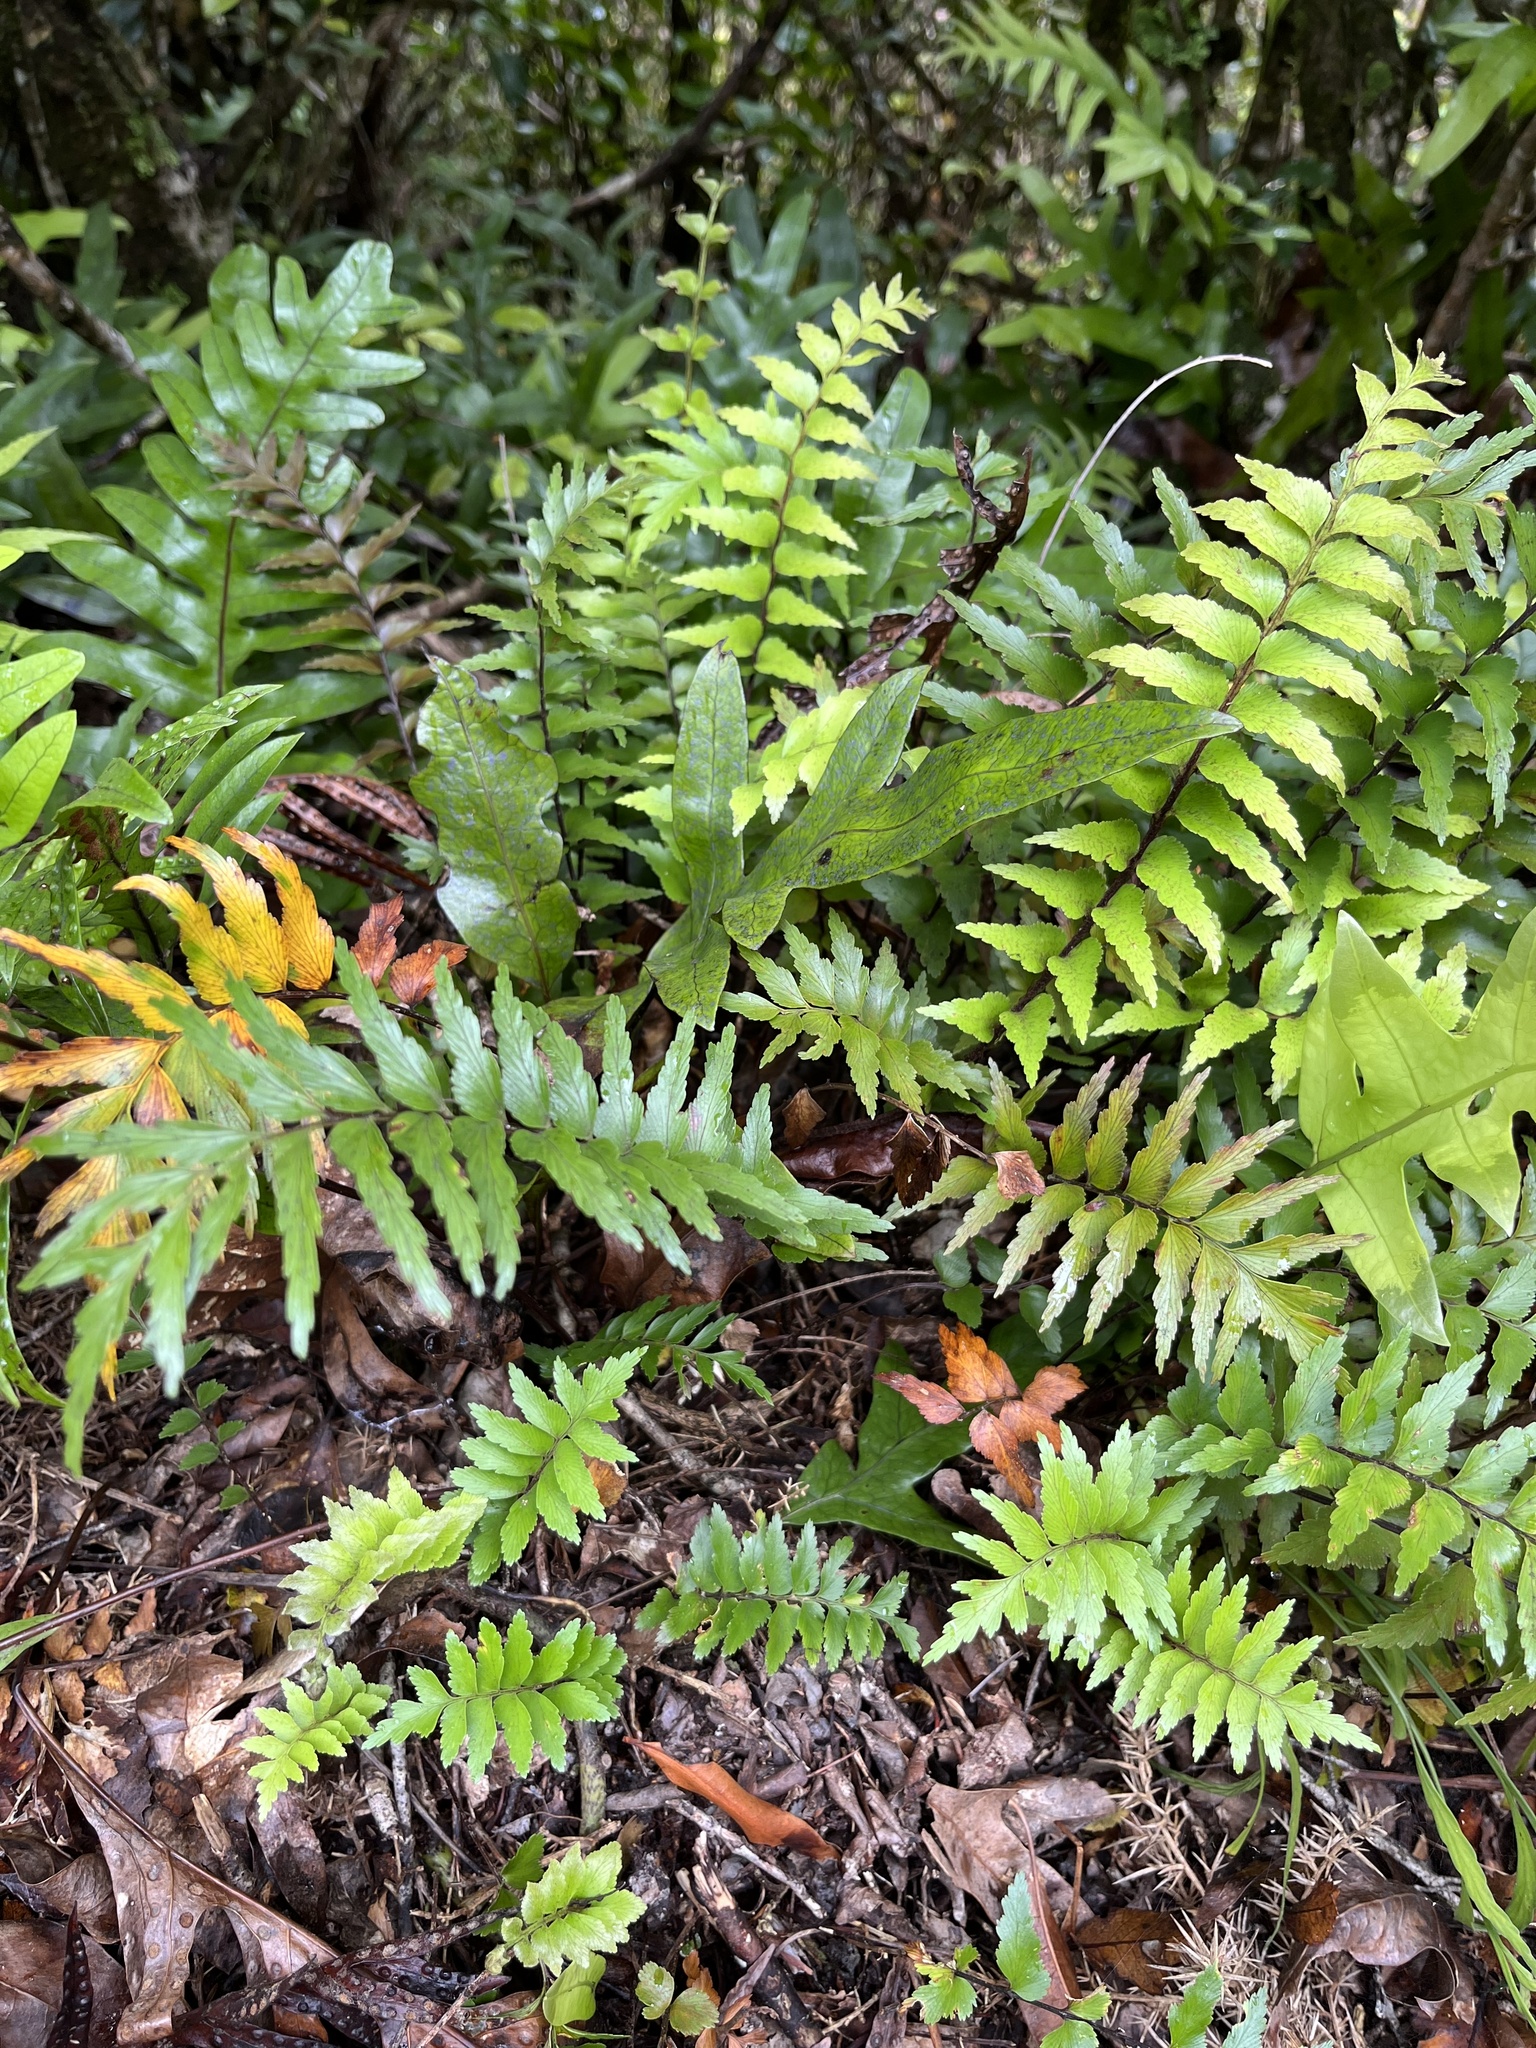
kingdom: Plantae
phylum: Tracheophyta
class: Polypodiopsida
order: Polypodiales
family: Aspleniaceae
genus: Asplenium
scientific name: Asplenium polyodon
